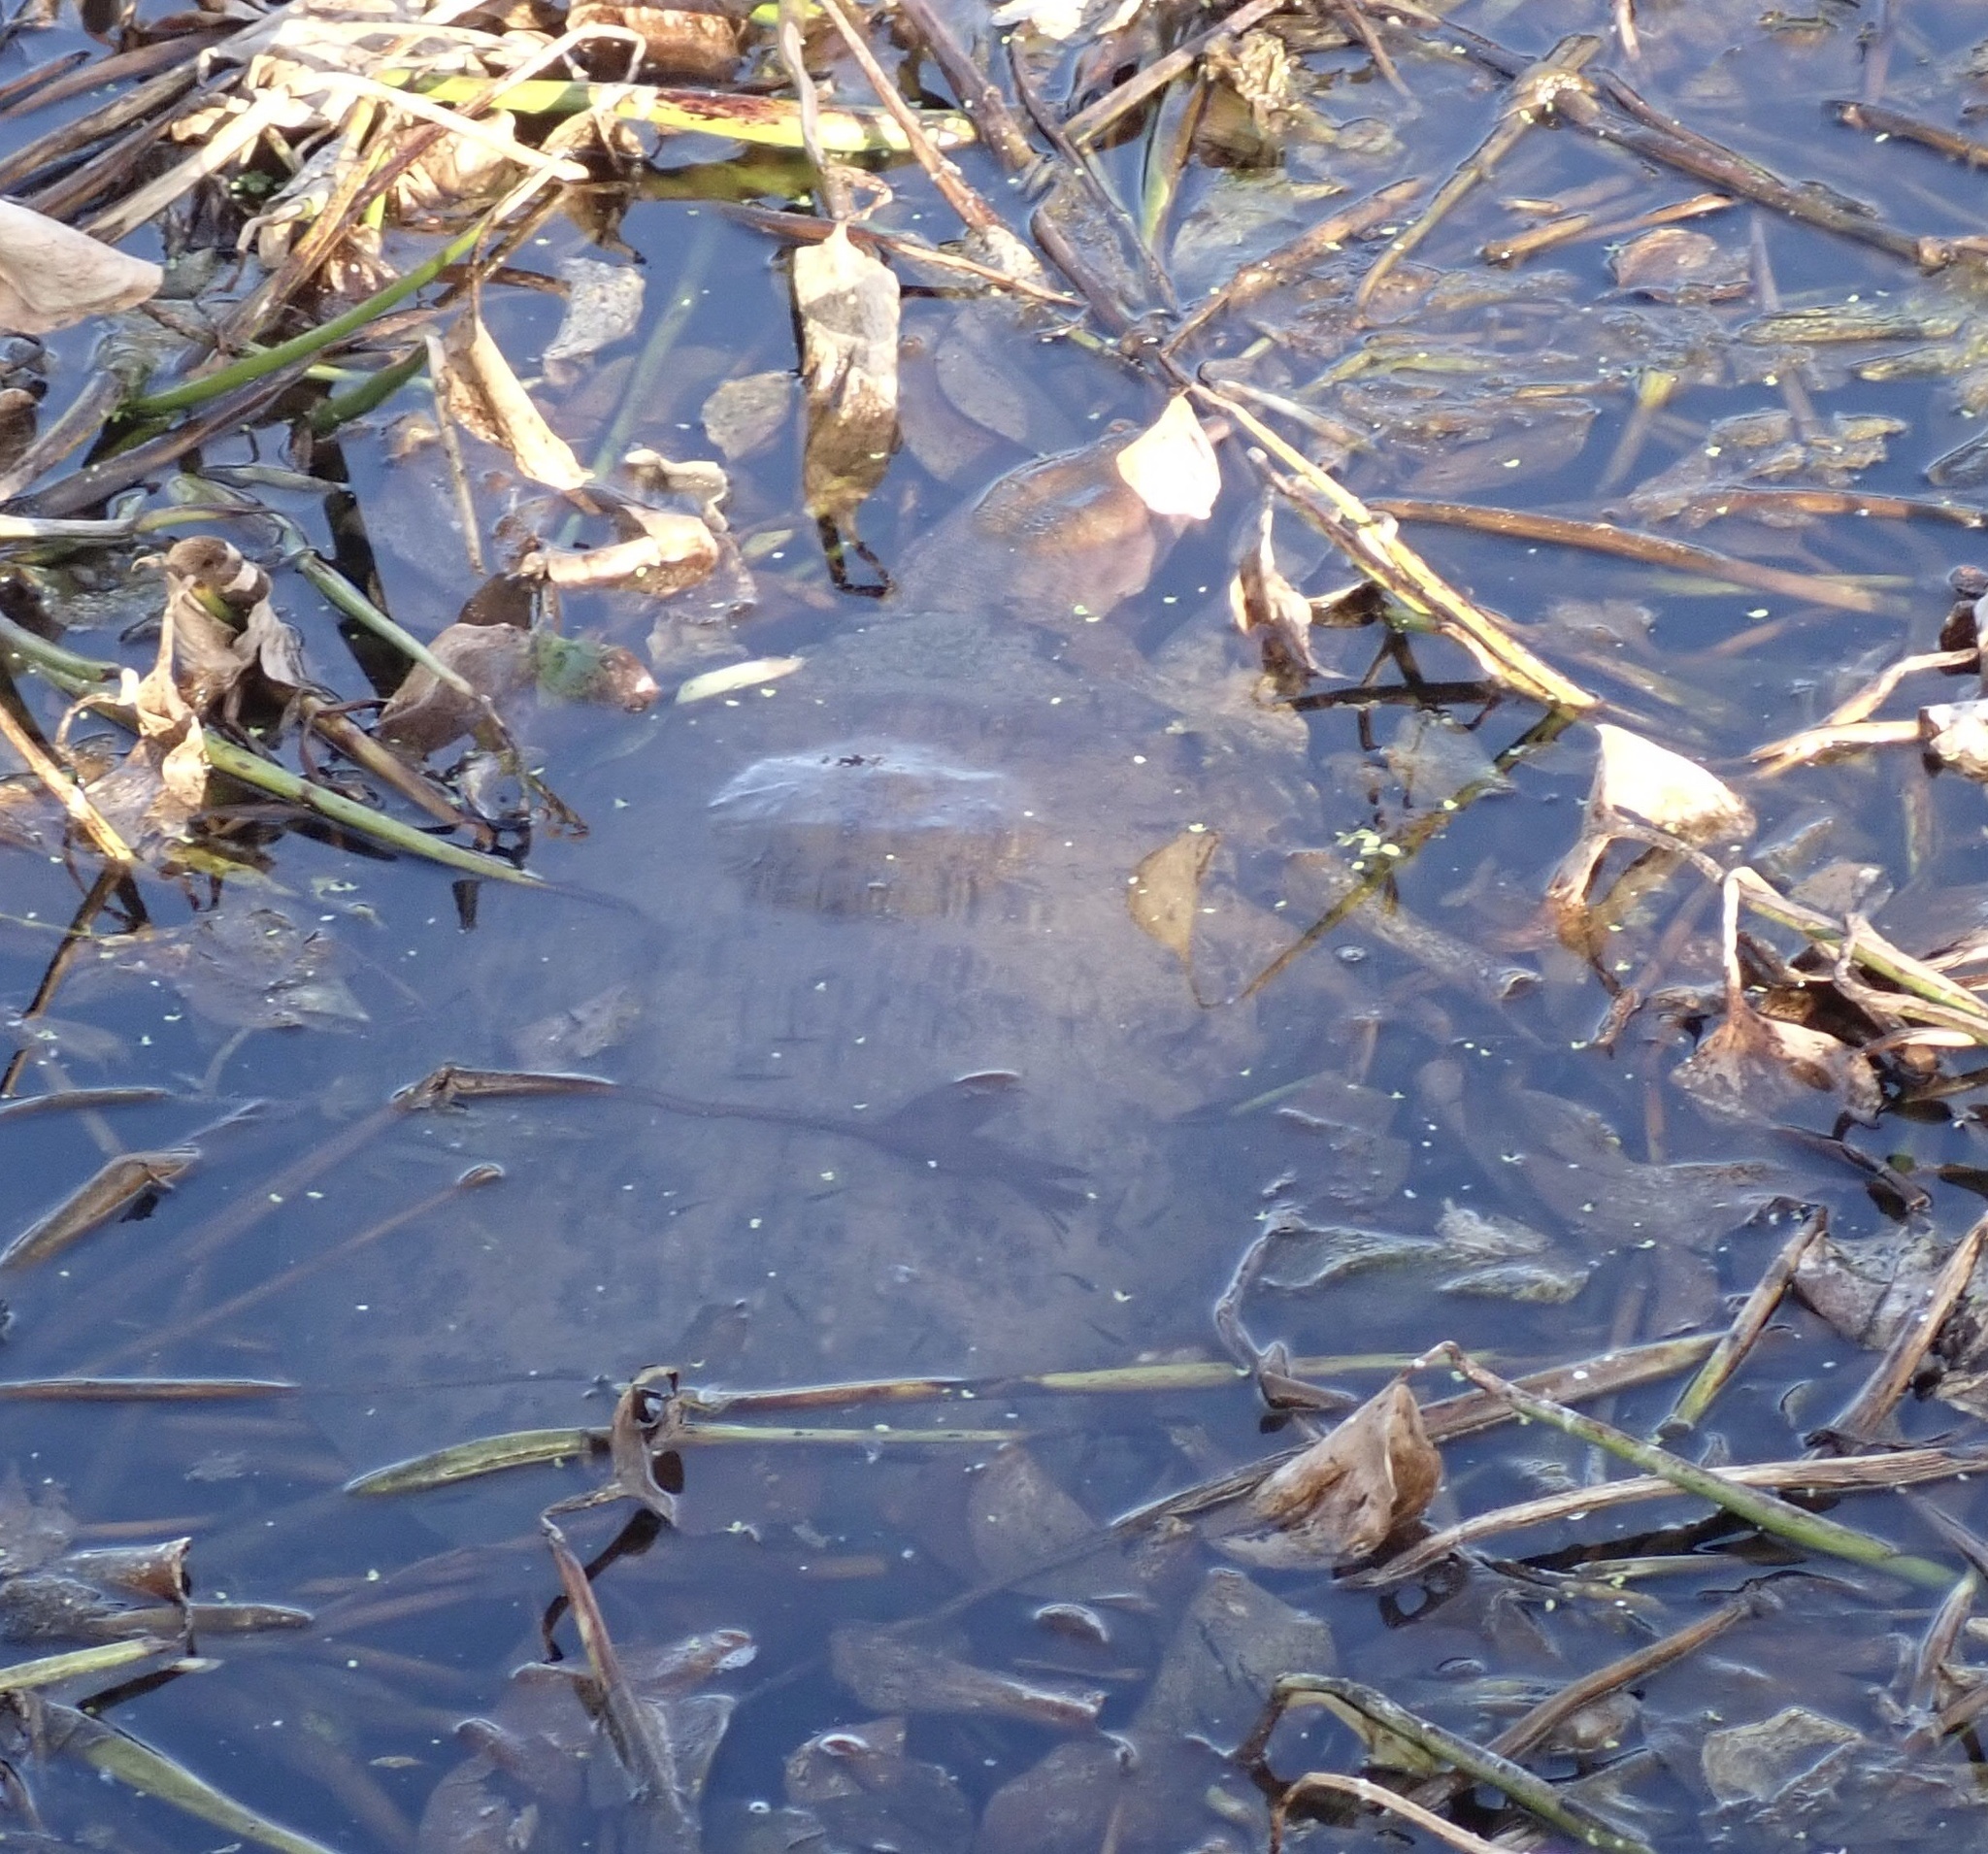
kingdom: Animalia
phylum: Chordata
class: Testudines
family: Trionychidae
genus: Apalone
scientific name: Apalone ferox
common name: Florida softshell turtle
